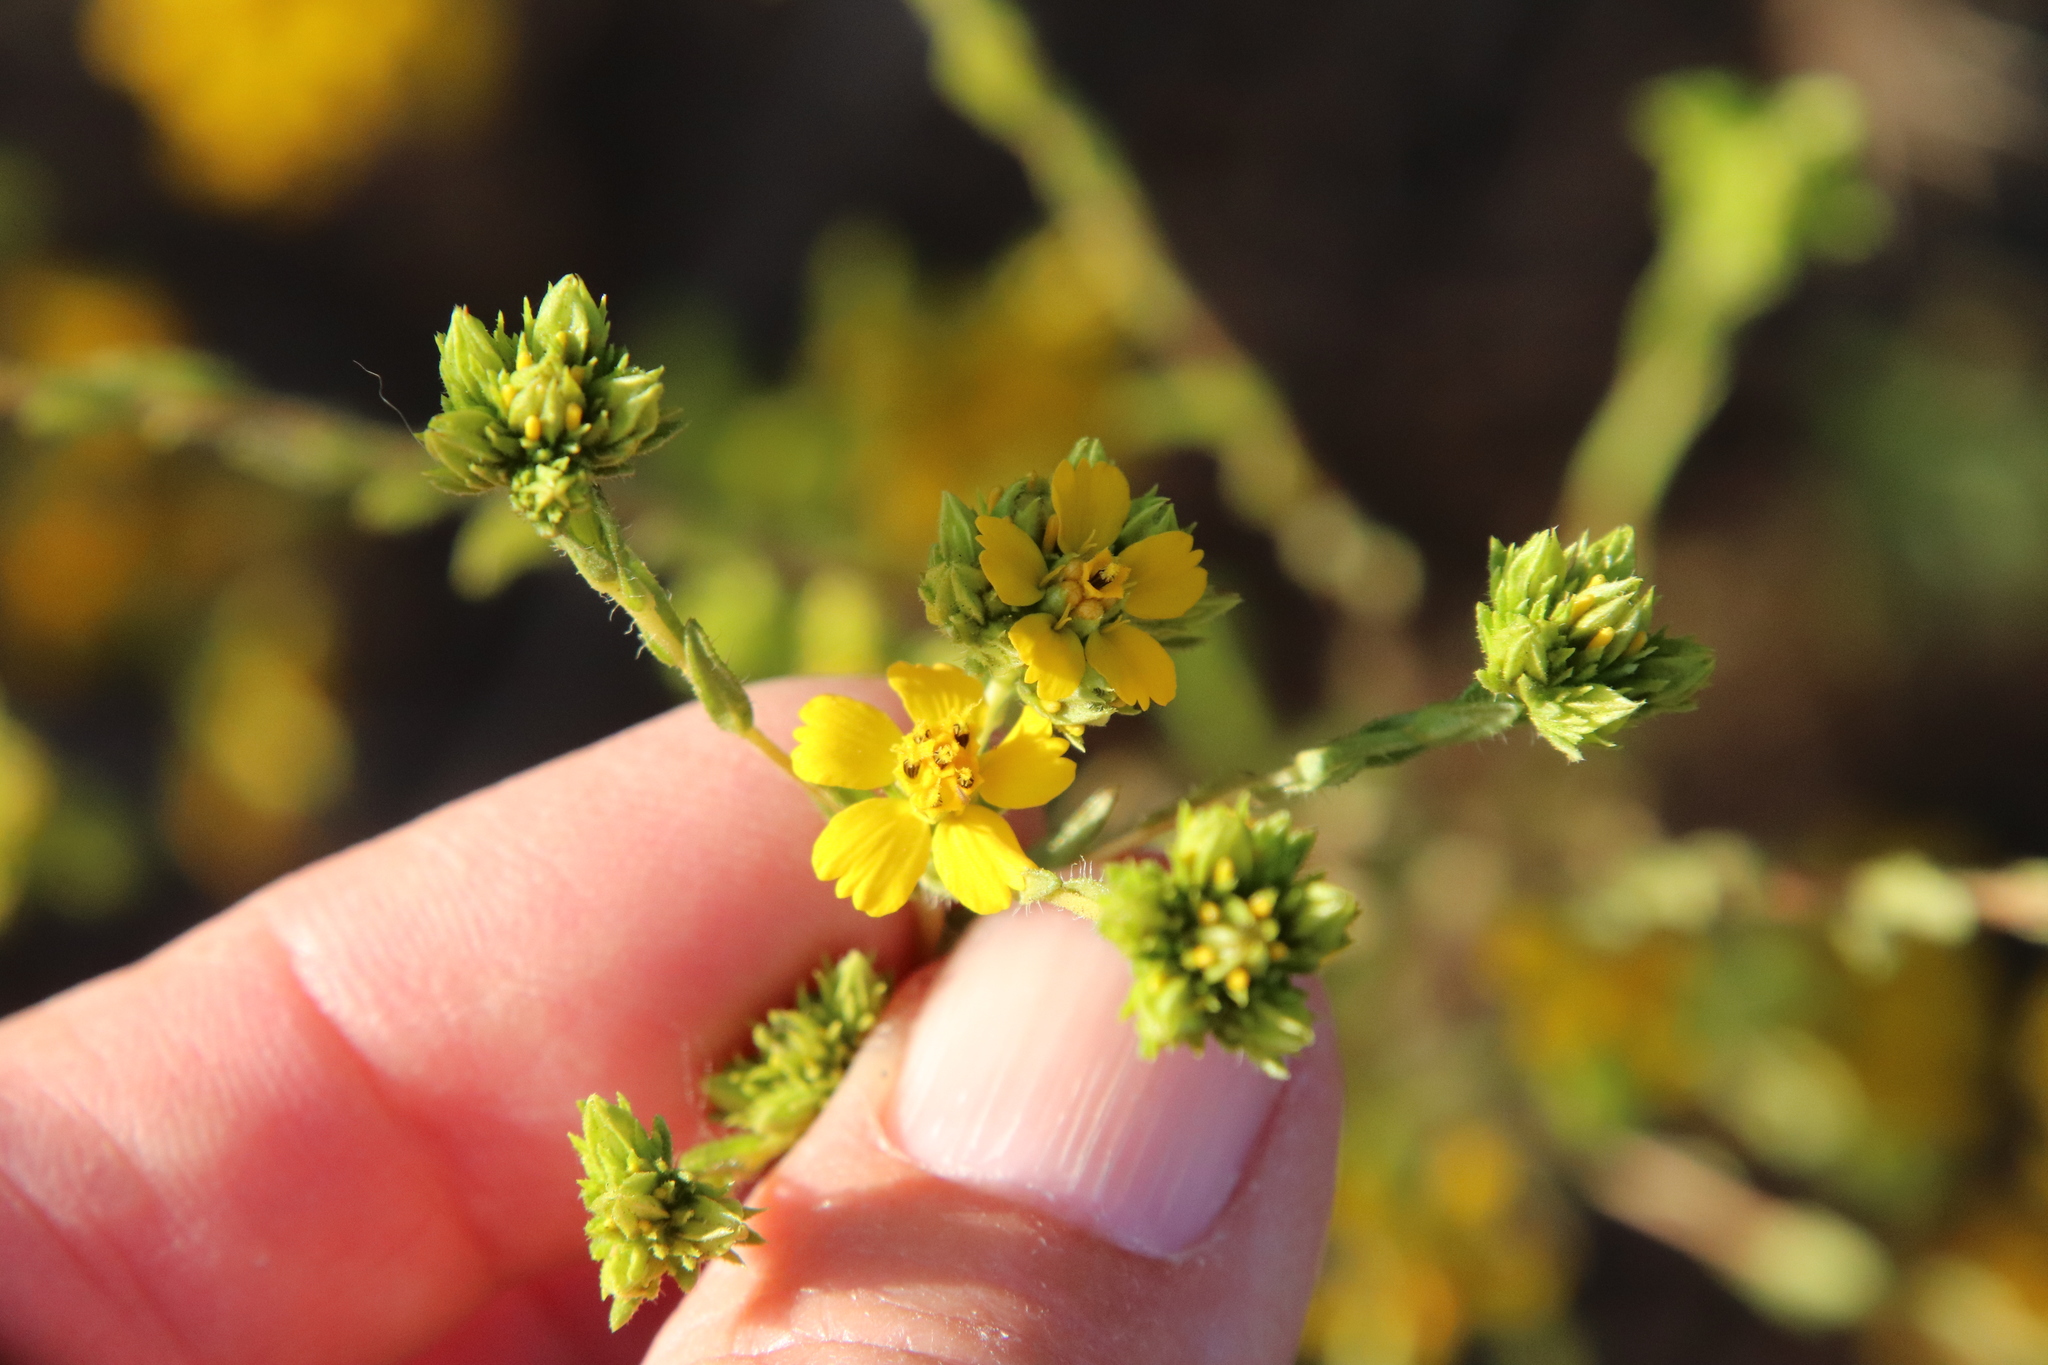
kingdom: Plantae
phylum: Tracheophyta
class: Magnoliopsida
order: Asterales
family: Asteraceae
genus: Deinandra
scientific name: Deinandra fasciculata
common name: Clustered tarweed
